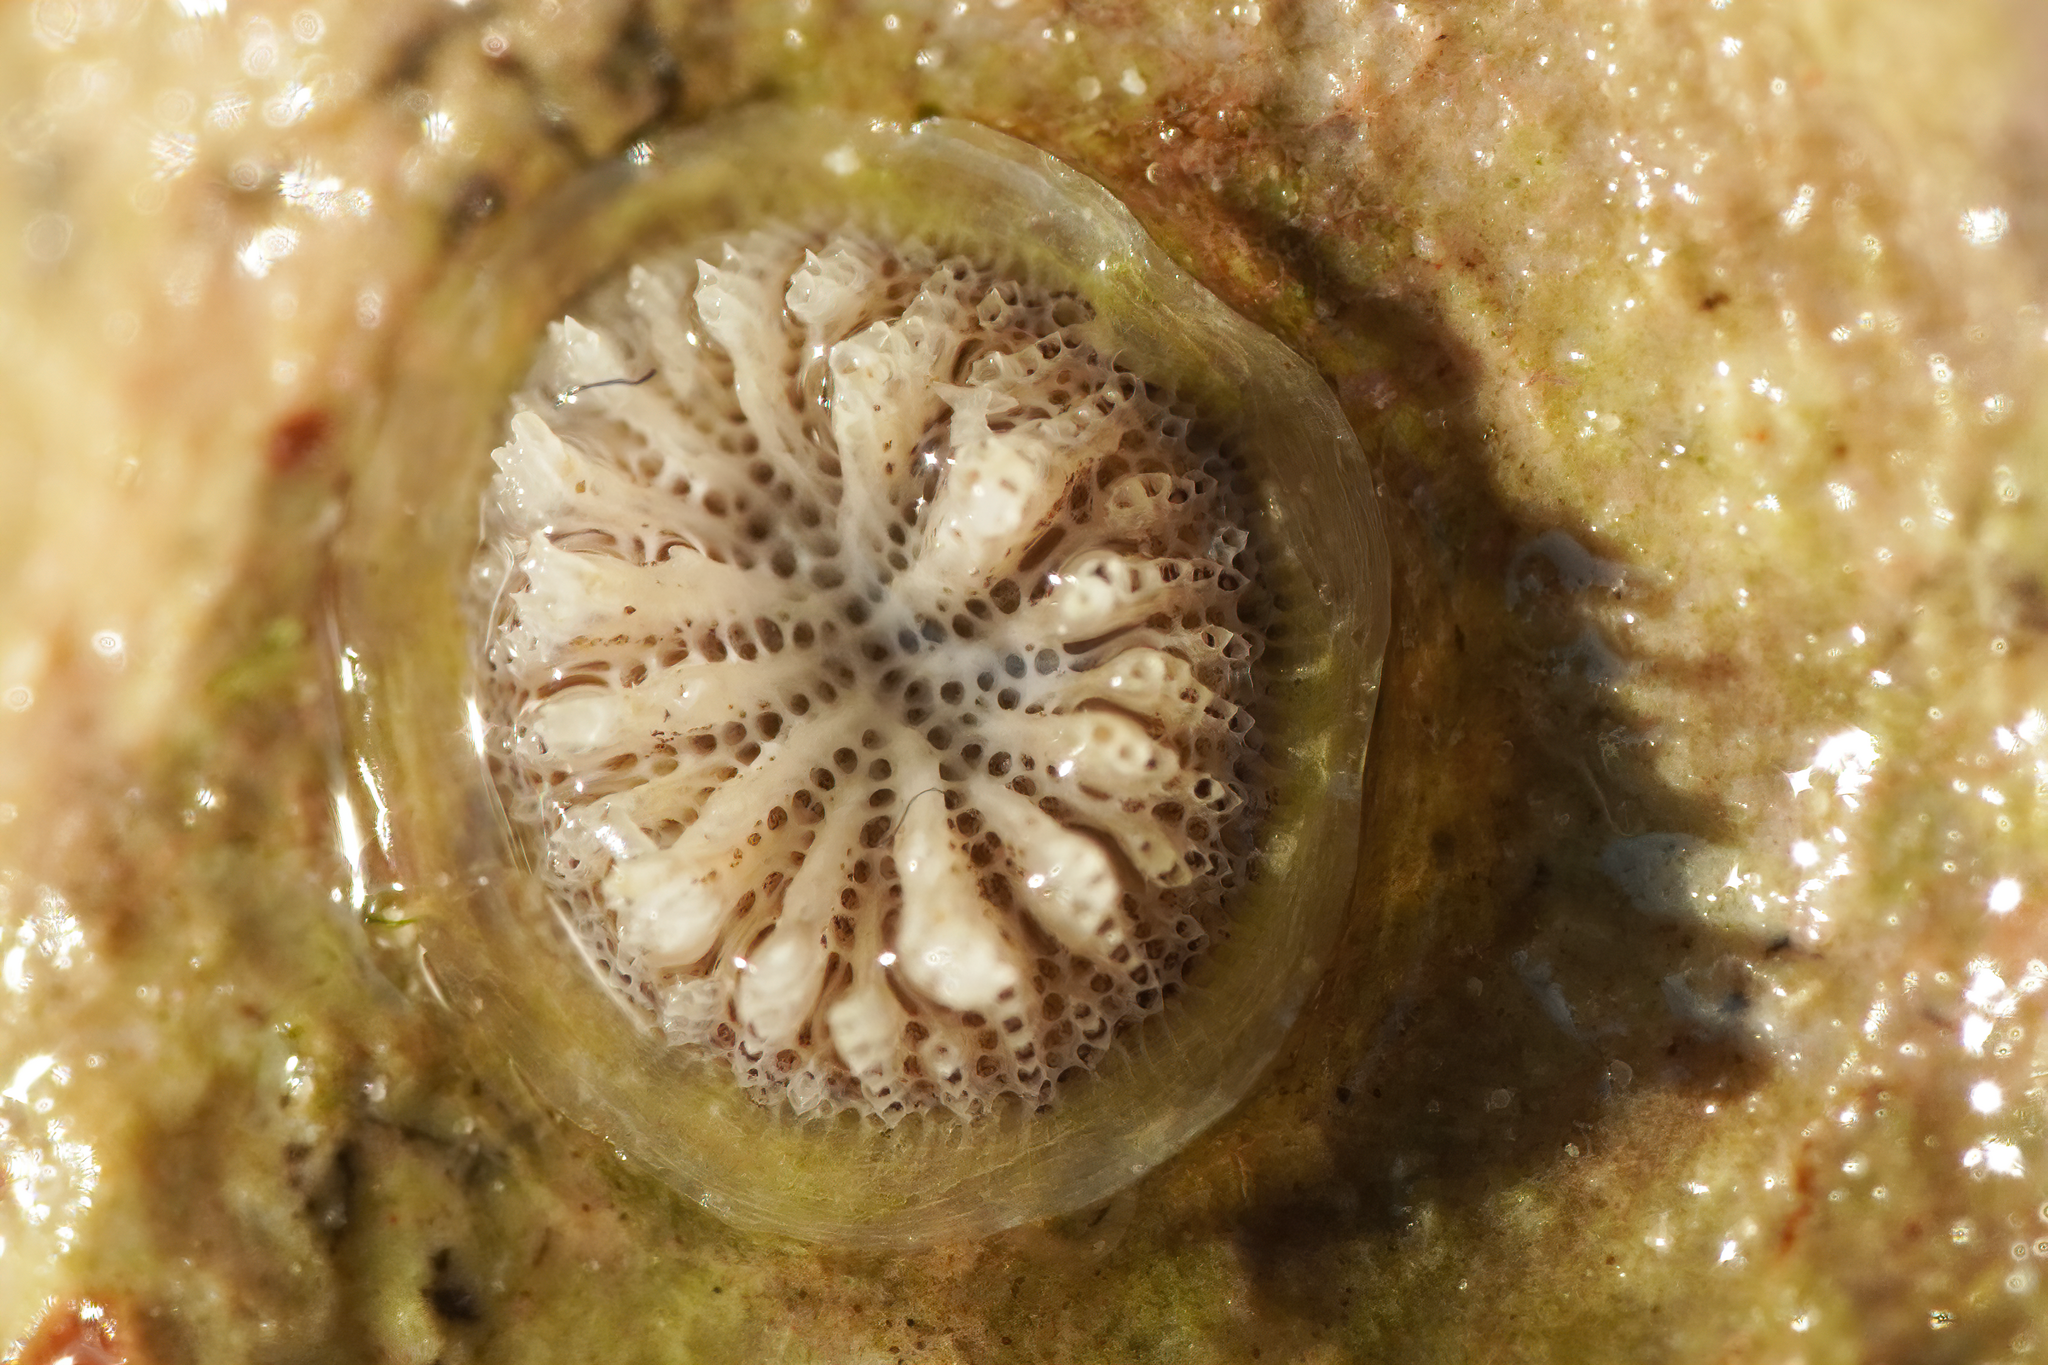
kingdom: Animalia
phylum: Bryozoa
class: Stenolaemata
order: Cyclostomatida
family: Lichenoporidae
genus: Patinella
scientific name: Patinella radiata
